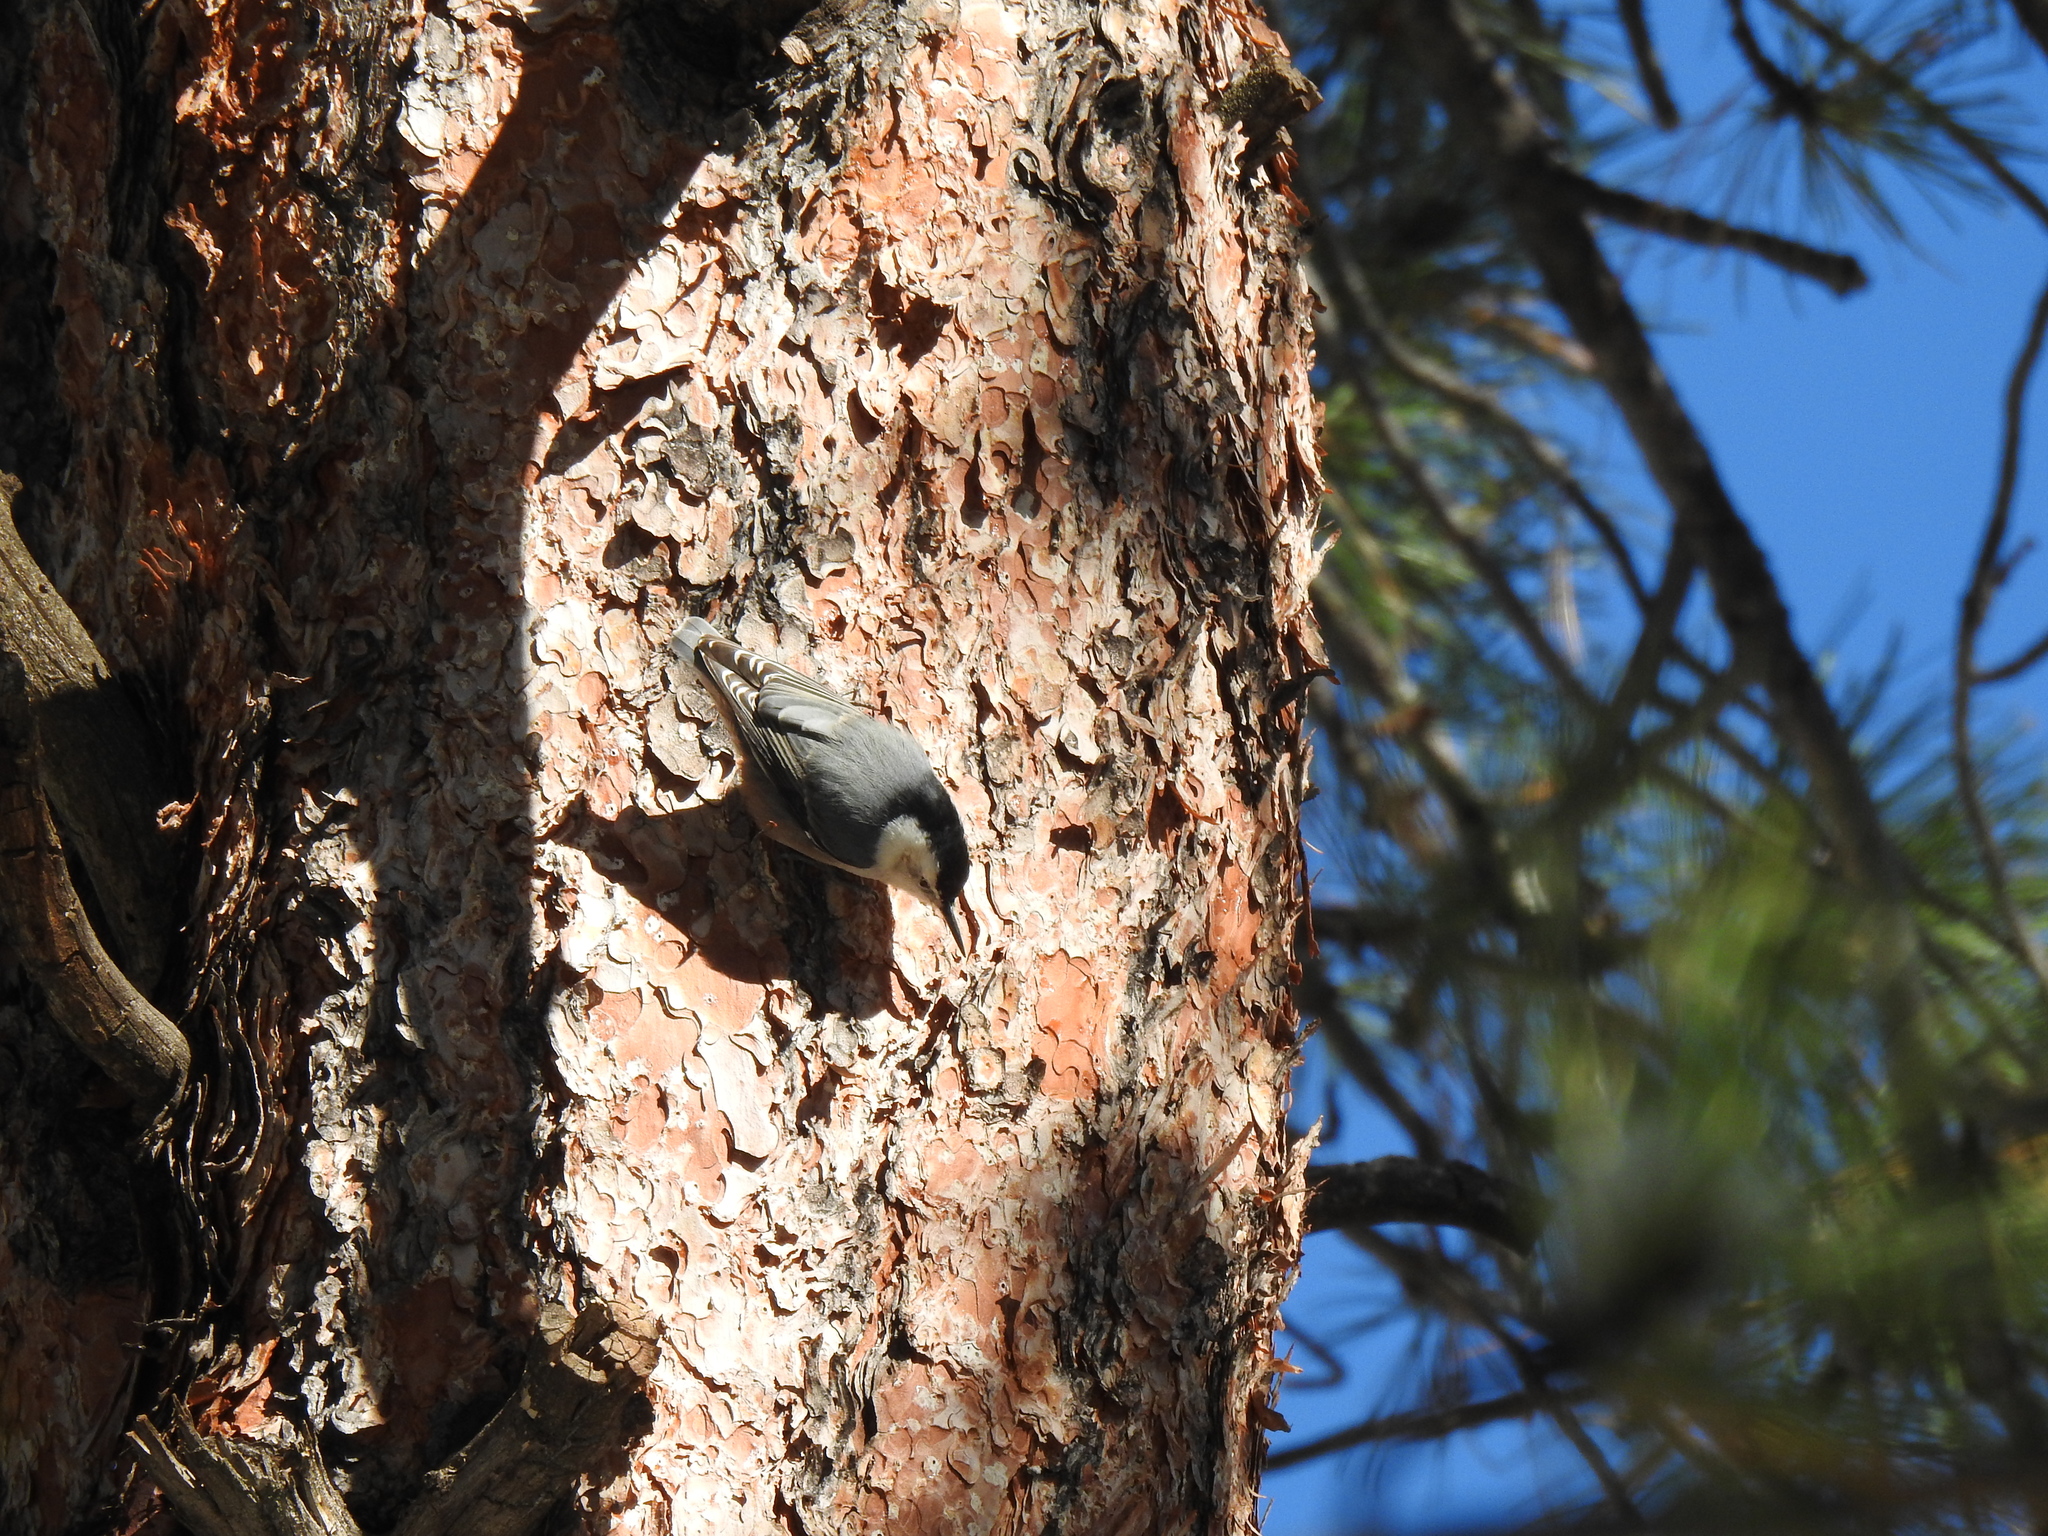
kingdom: Animalia
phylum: Chordata
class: Aves
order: Passeriformes
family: Sittidae
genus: Sitta
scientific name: Sitta carolinensis
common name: White-breasted nuthatch
